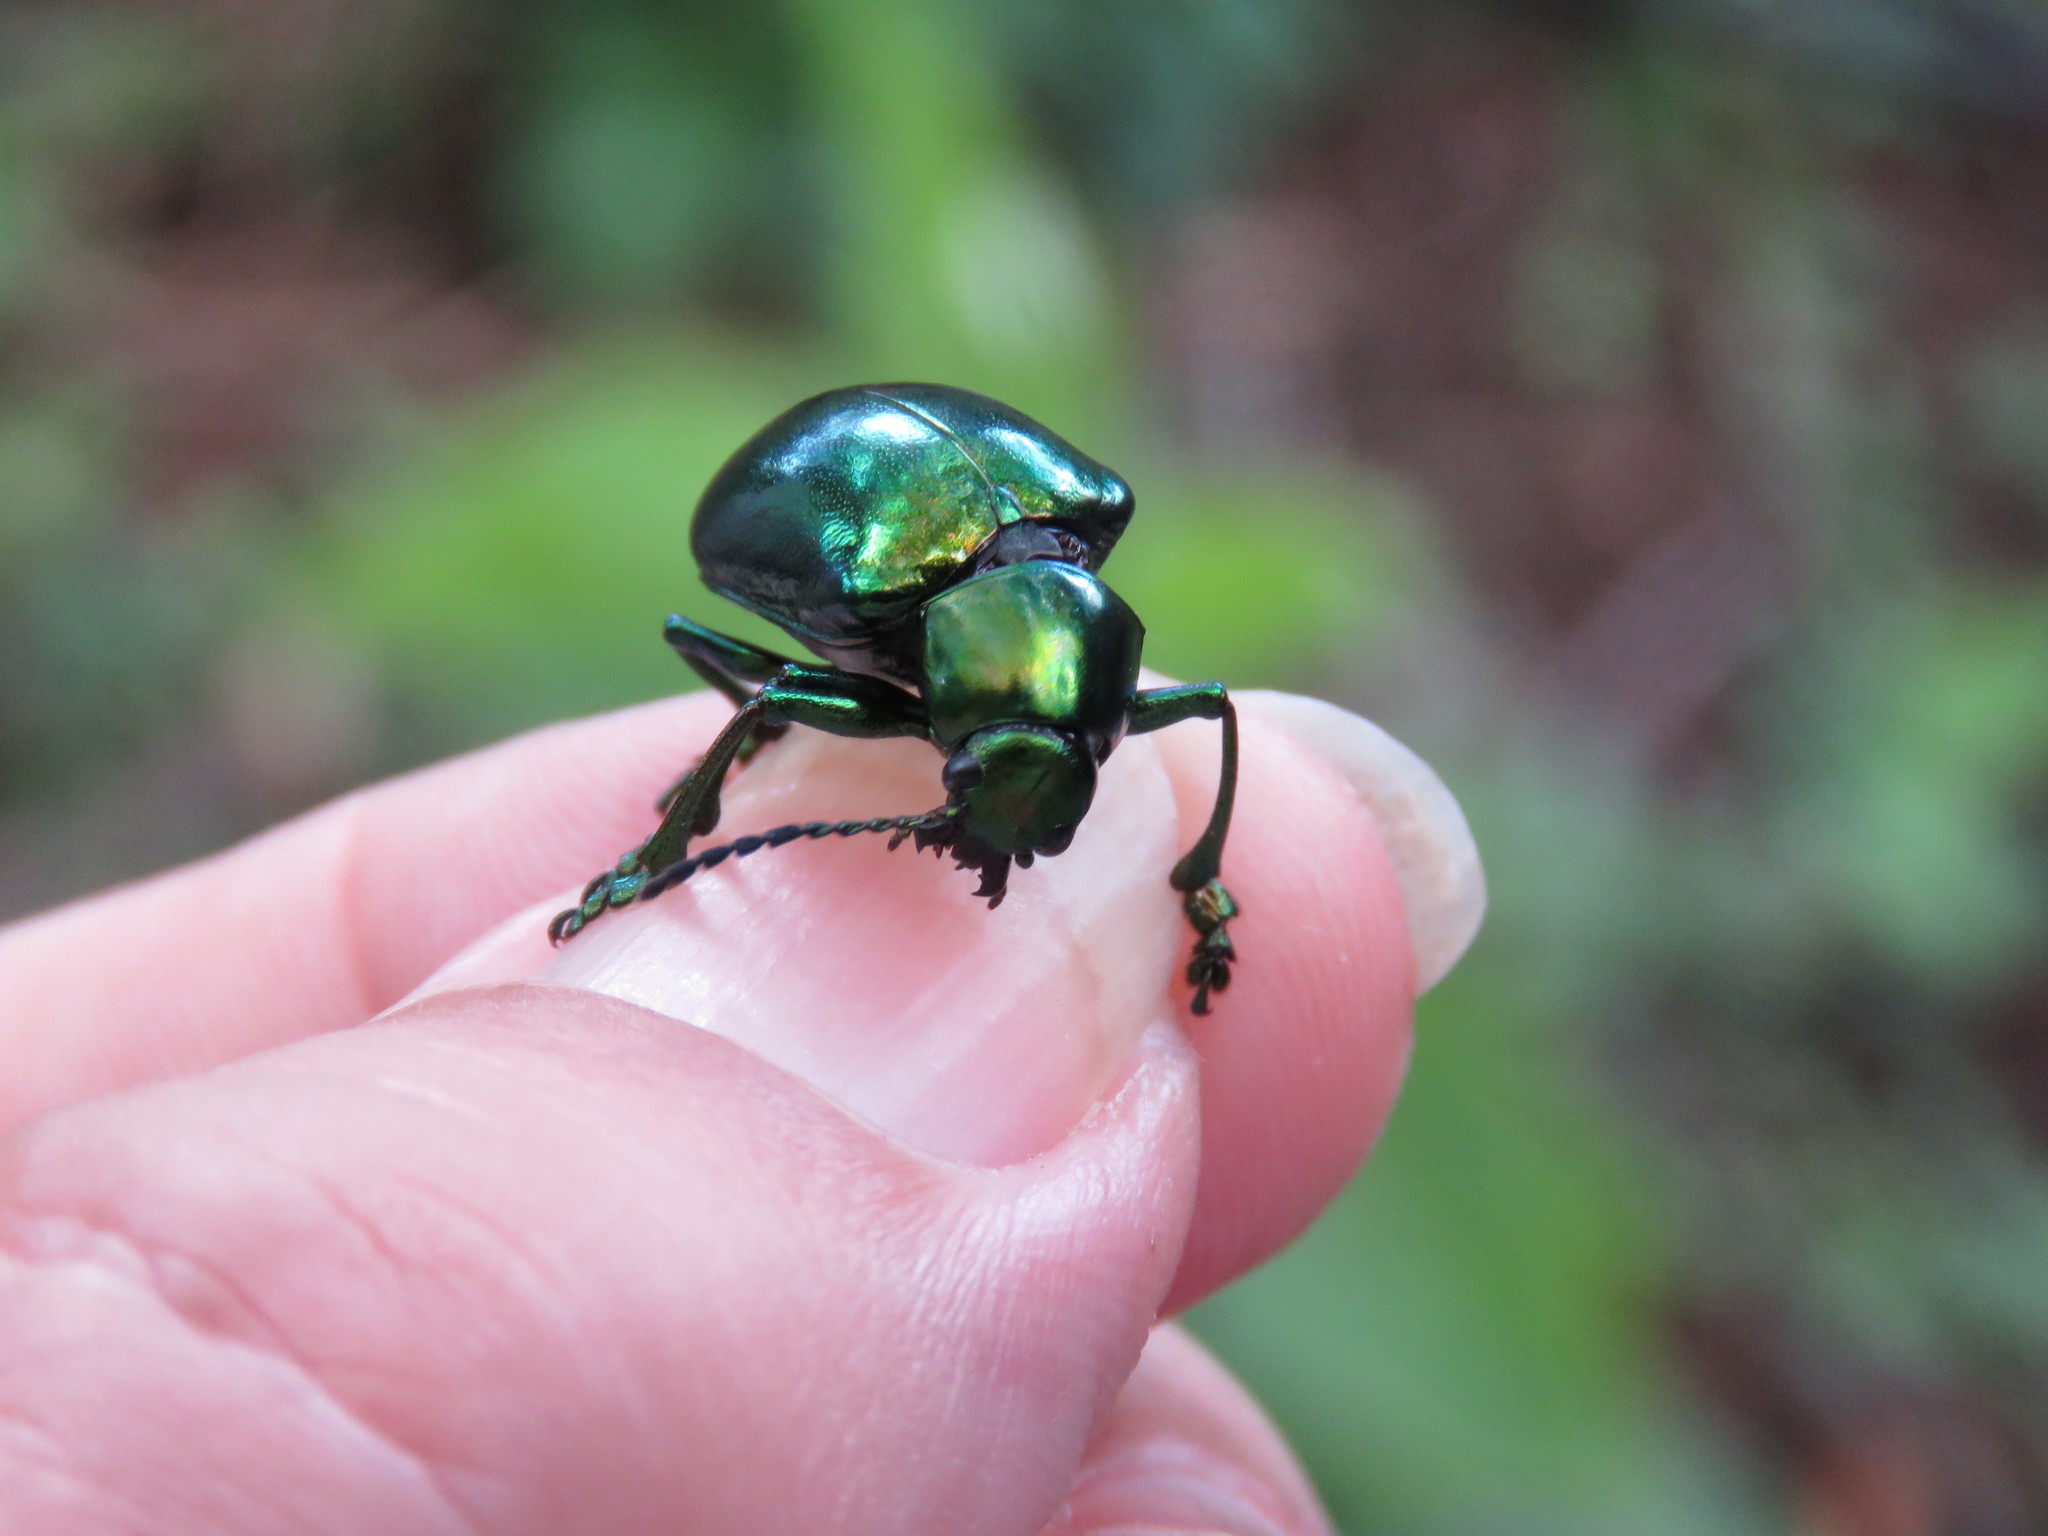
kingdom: Animalia
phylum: Arthropoda
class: Insecta
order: Coleoptera
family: Chrysomelidae
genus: Eumolpus
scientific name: Eumolpus robustus
